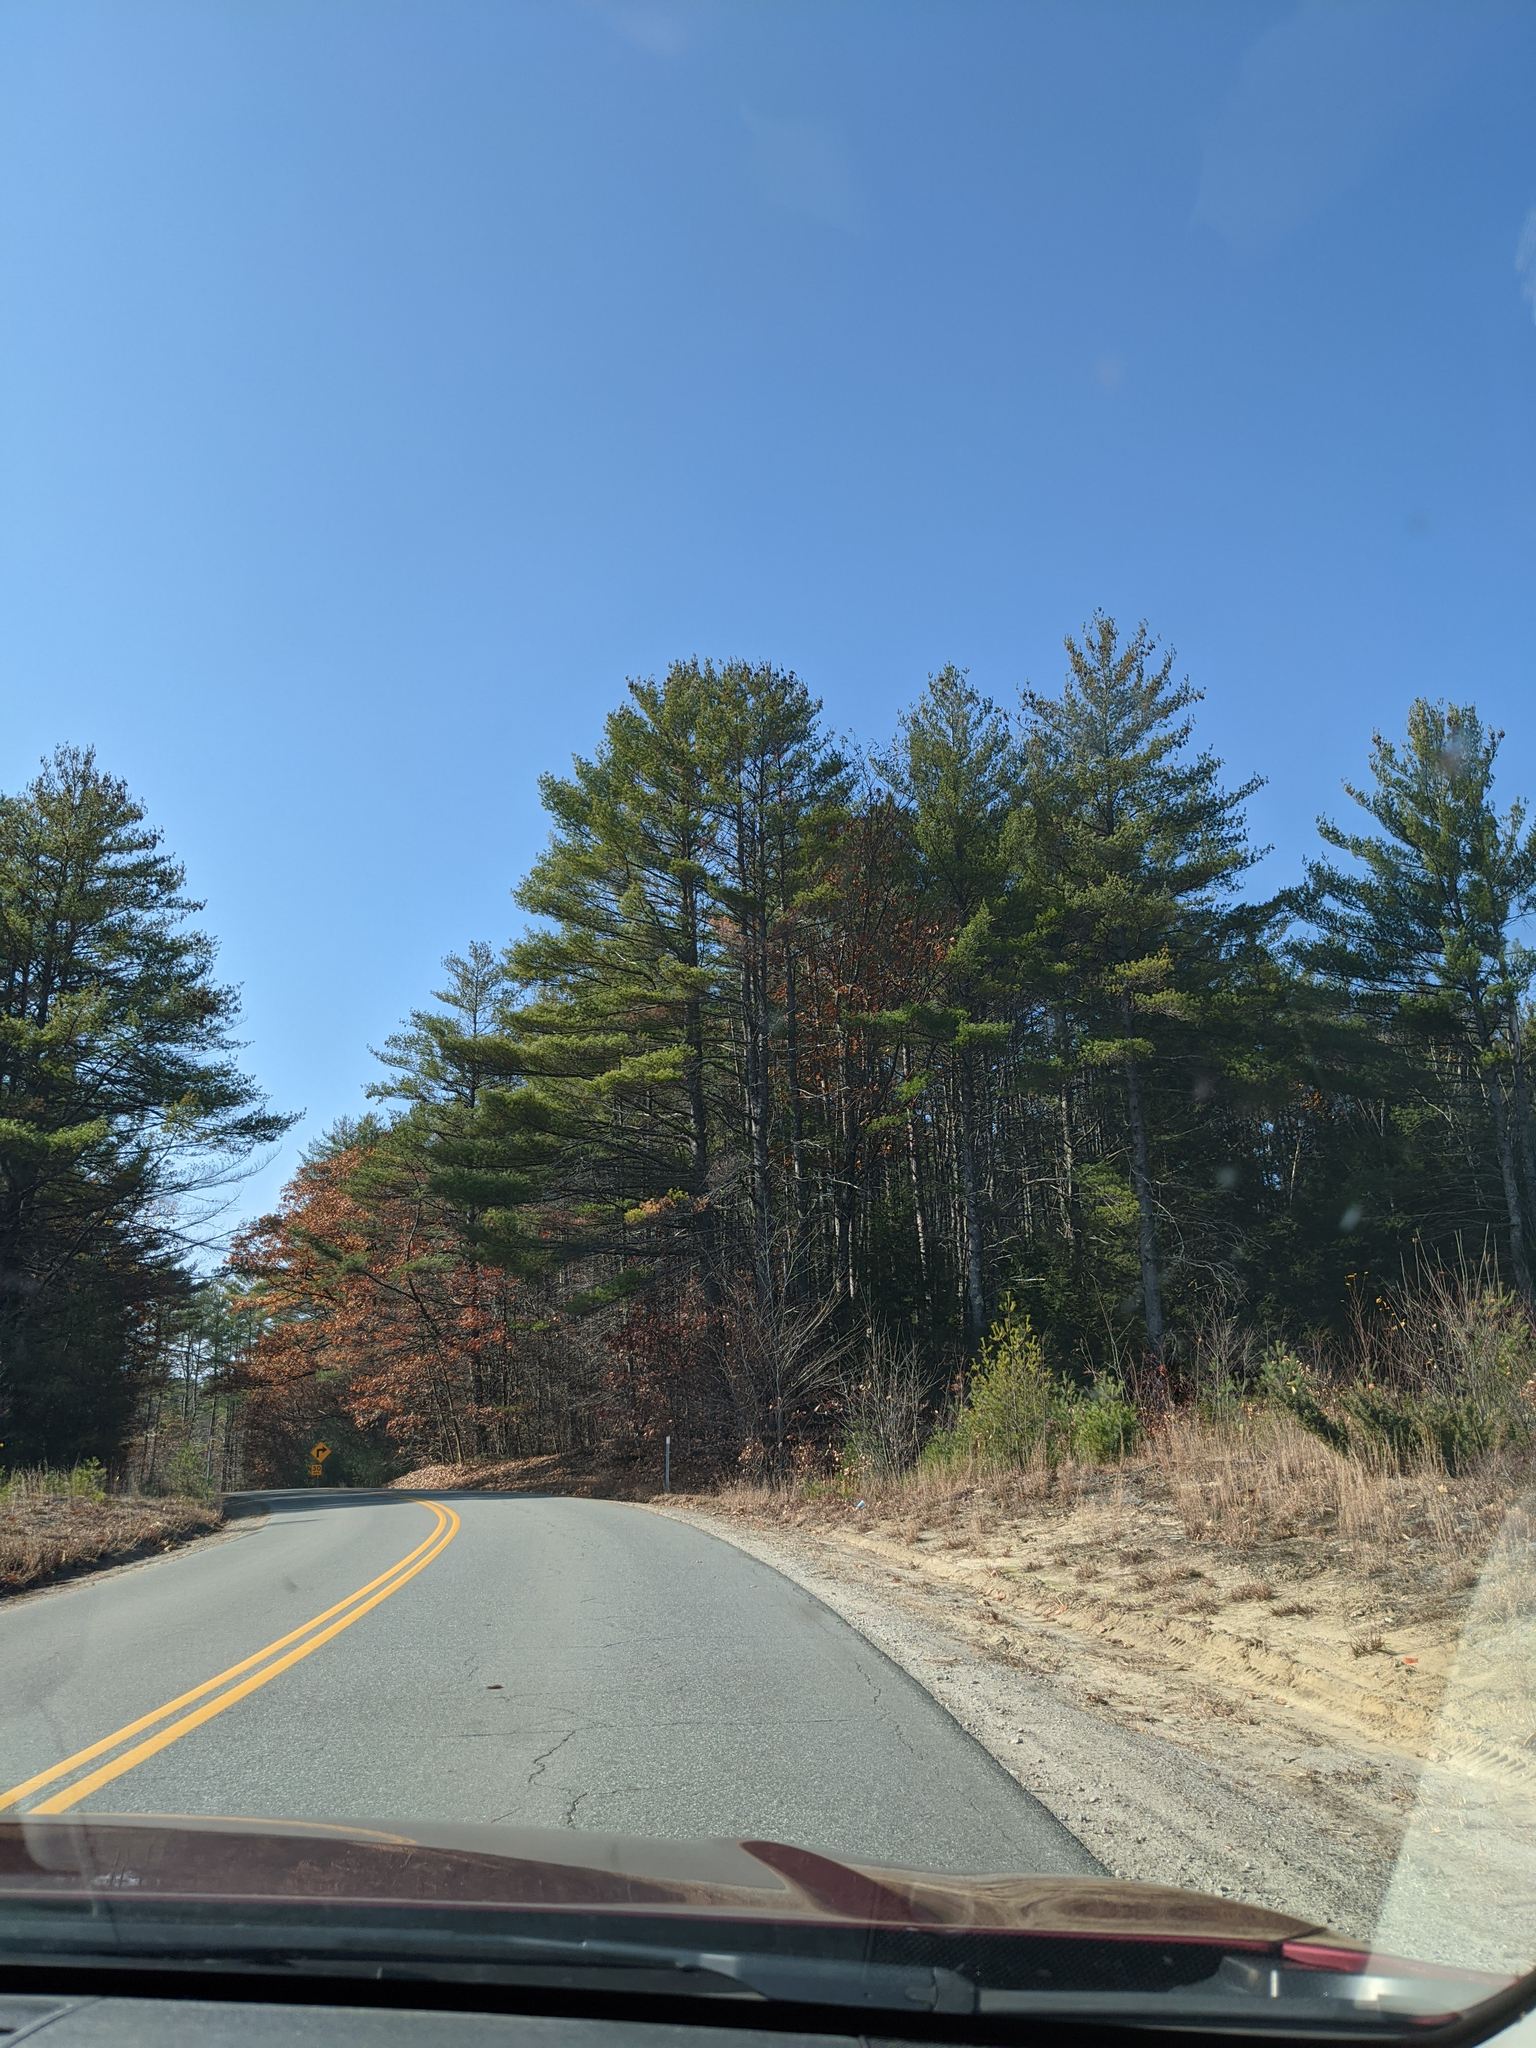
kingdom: Plantae
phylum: Tracheophyta
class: Pinopsida
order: Pinales
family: Pinaceae
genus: Pinus
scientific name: Pinus strobus
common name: Weymouth pine
